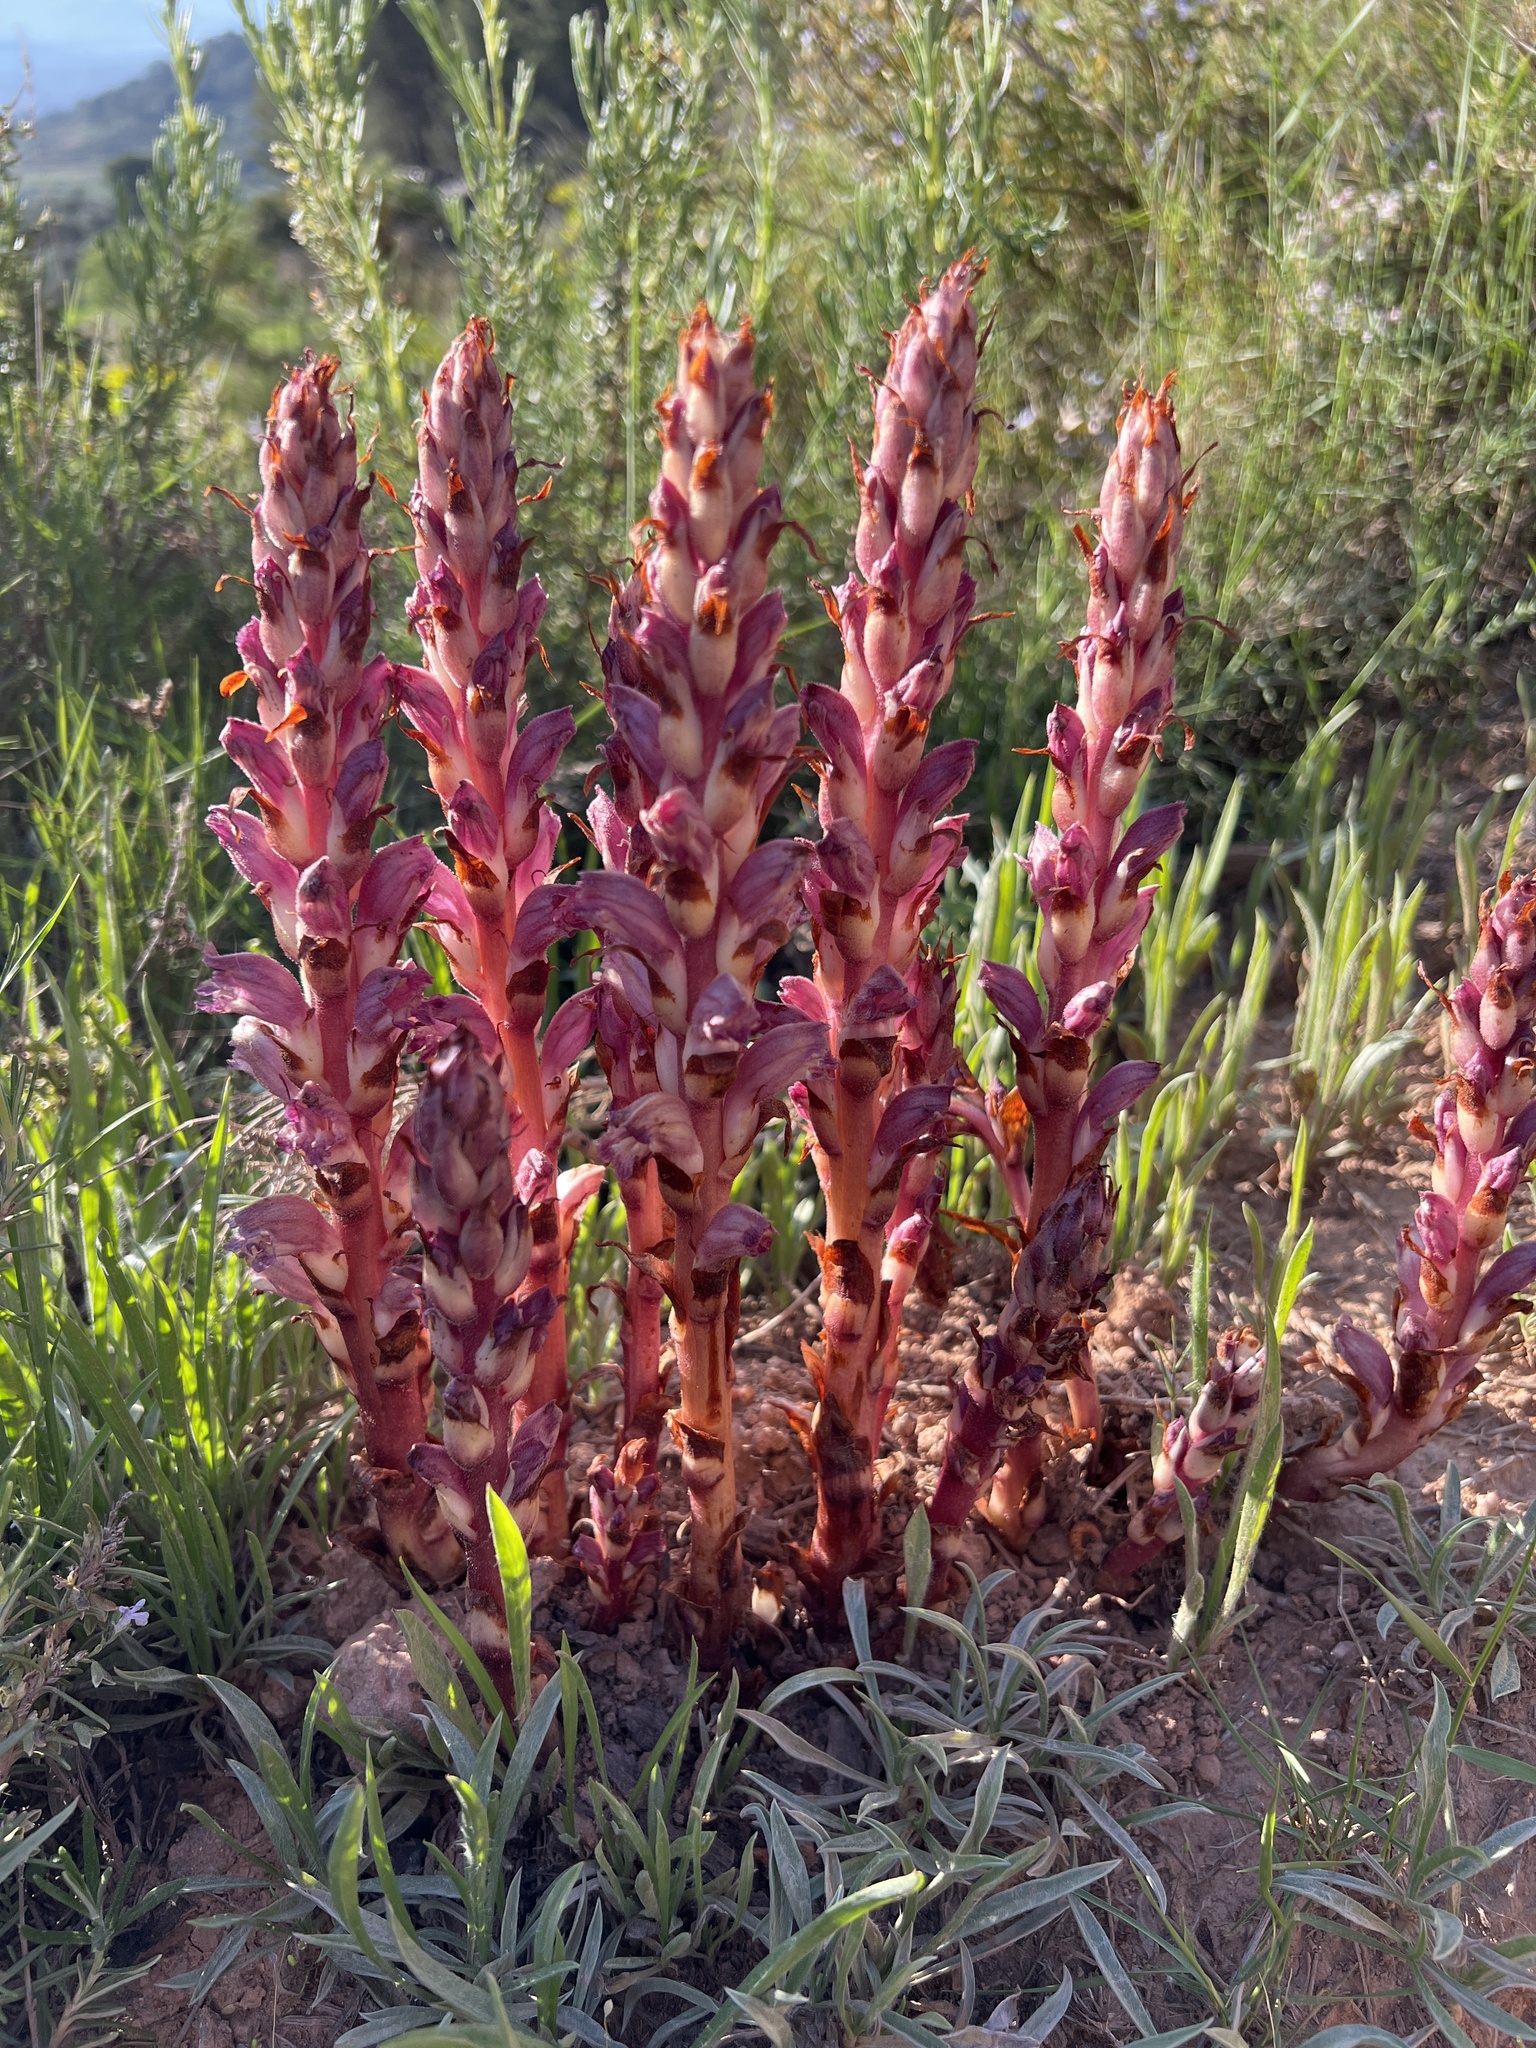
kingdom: Plantae
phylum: Tracheophyta
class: Magnoliopsida
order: Lamiales
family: Orobanchaceae
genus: Boulardia
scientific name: Boulardia latisquama
